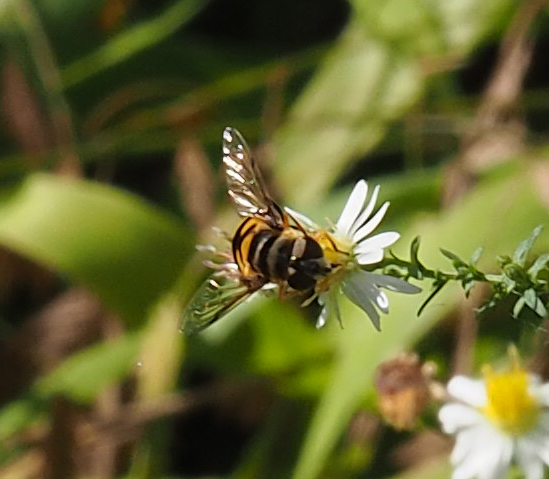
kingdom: Animalia
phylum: Arthropoda
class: Insecta
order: Diptera
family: Syrphidae
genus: Eristalis
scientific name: Eristalis transversa
